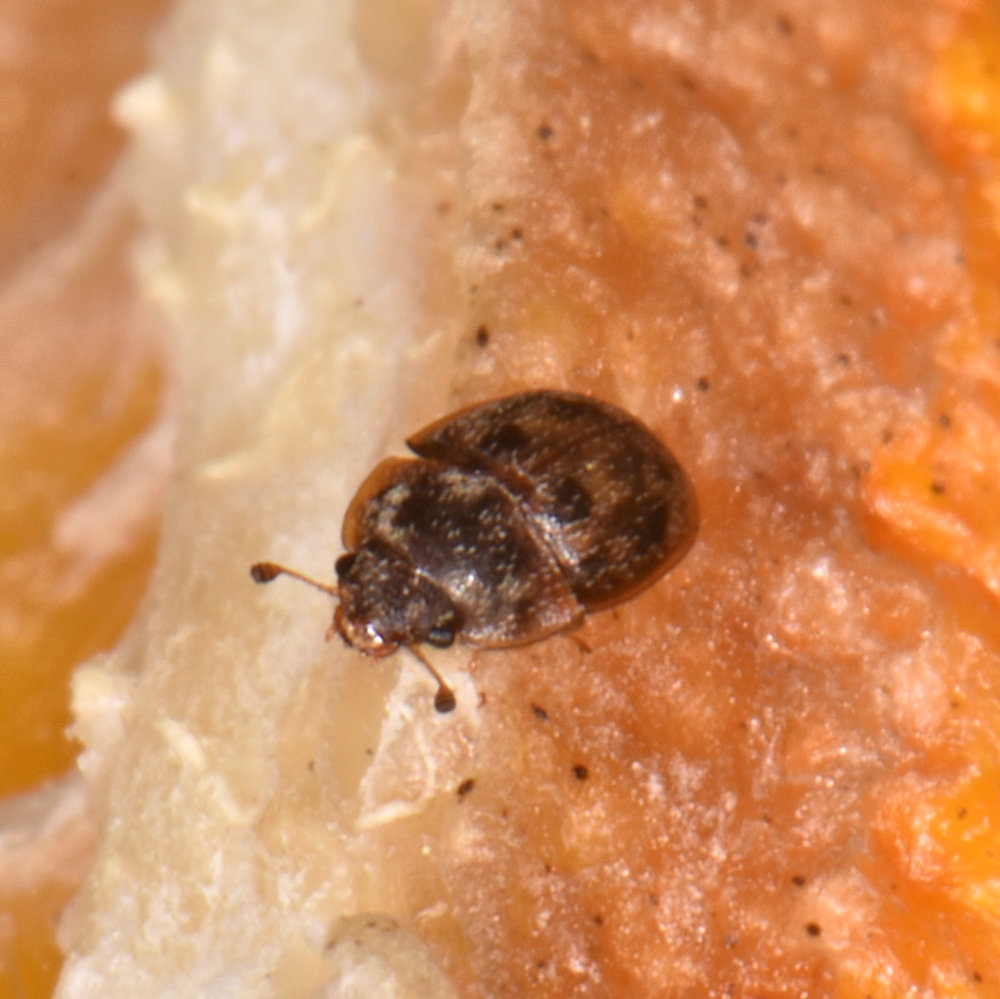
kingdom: Animalia
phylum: Arthropoda
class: Insecta
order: Coleoptera
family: Nitidulidae
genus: Omosita
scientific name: Omosita nearctica
